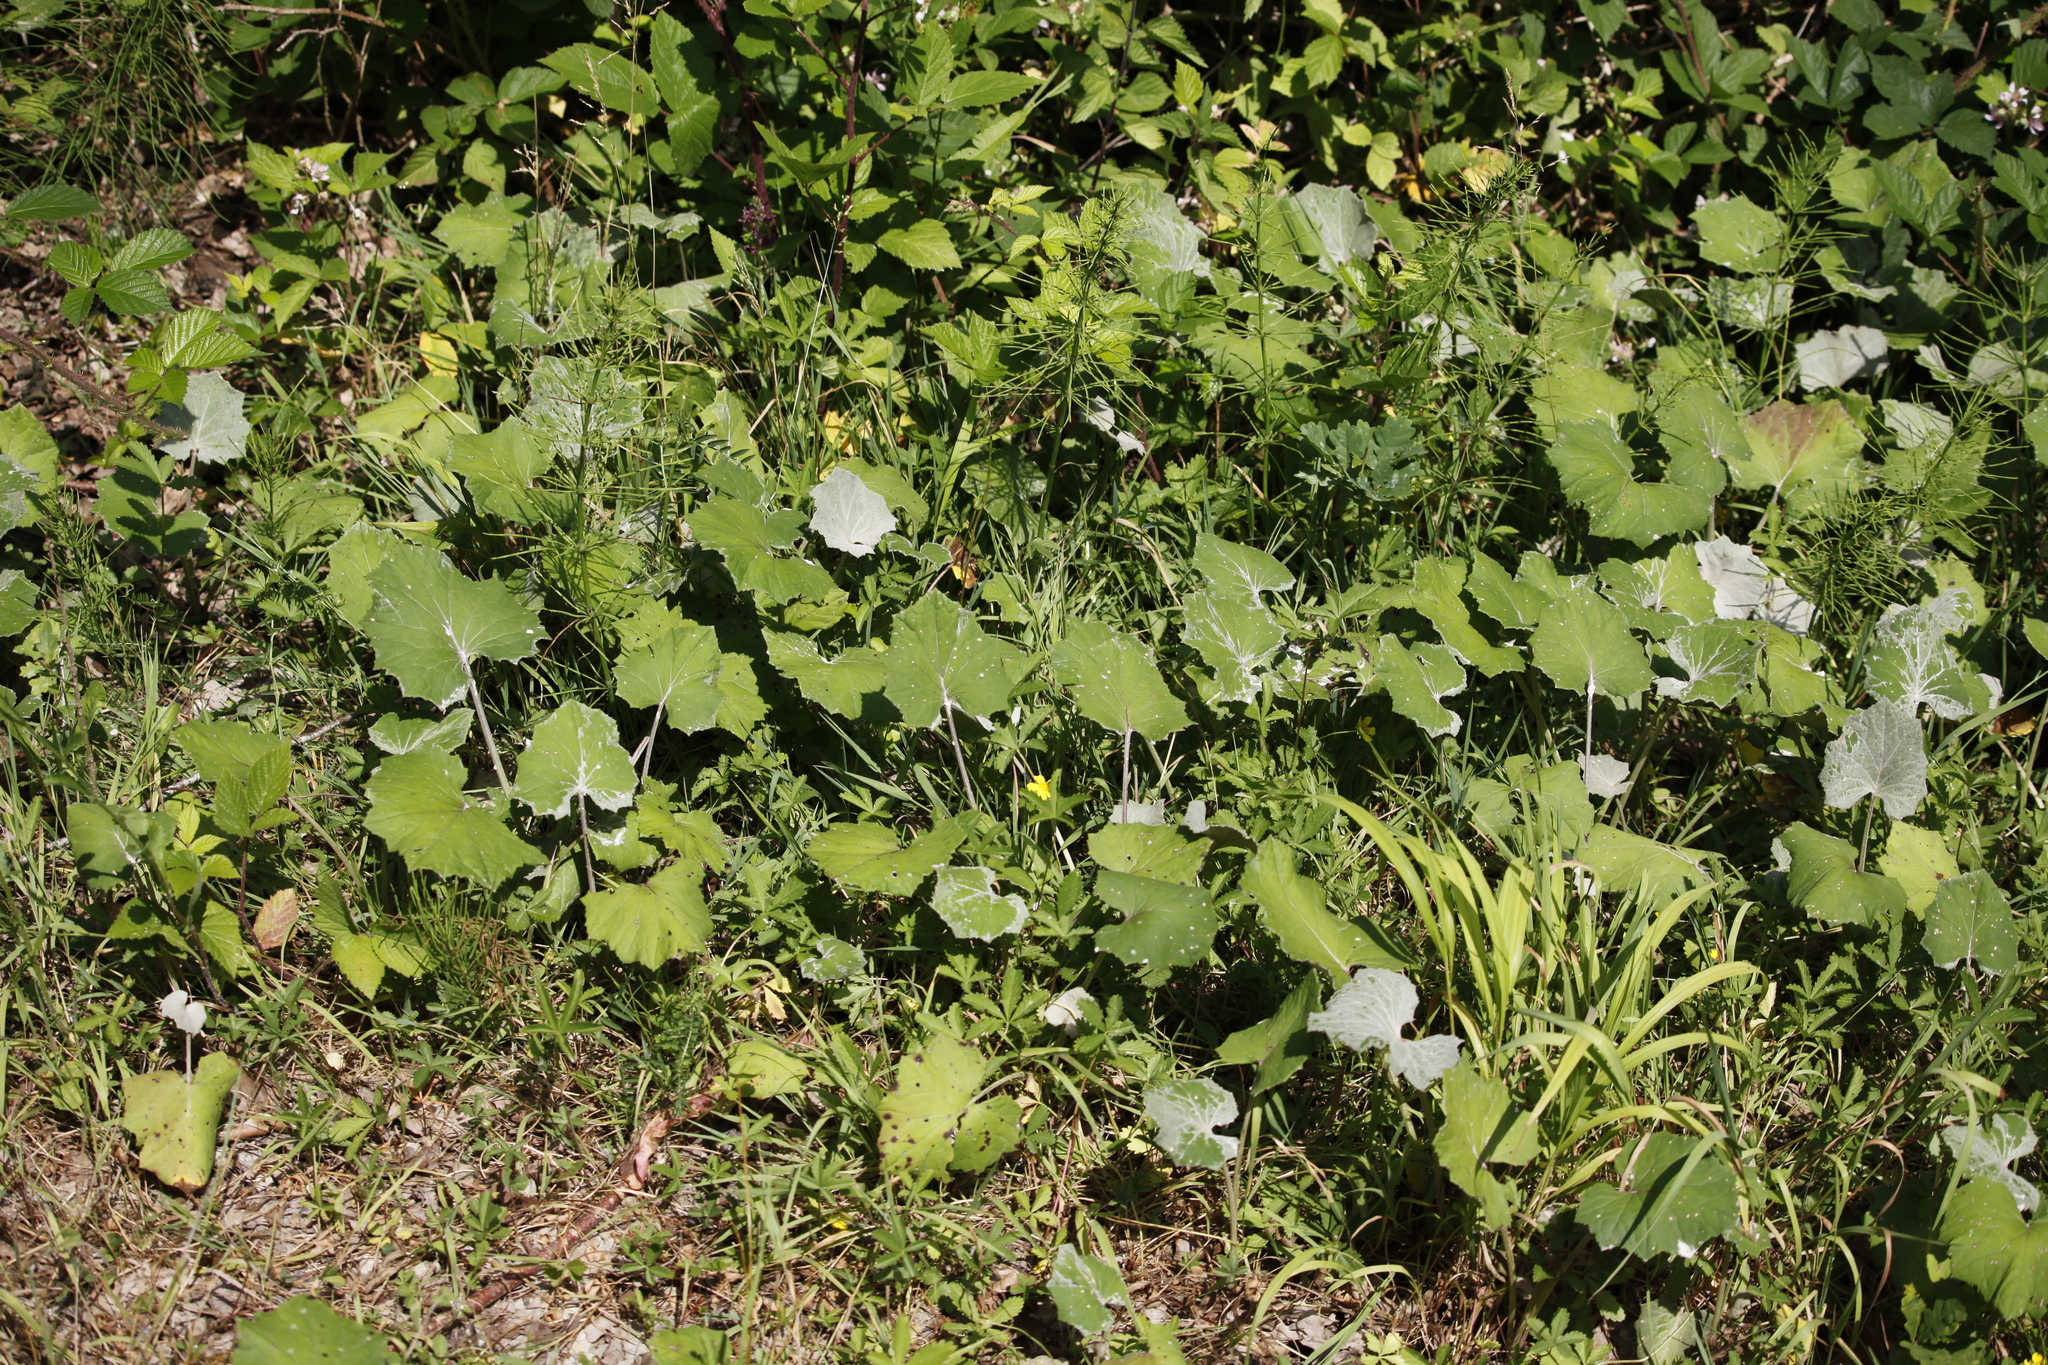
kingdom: Plantae
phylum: Tracheophyta
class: Magnoliopsida
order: Asterales
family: Asteraceae
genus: Tussilago
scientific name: Tussilago farfara
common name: Coltsfoot
